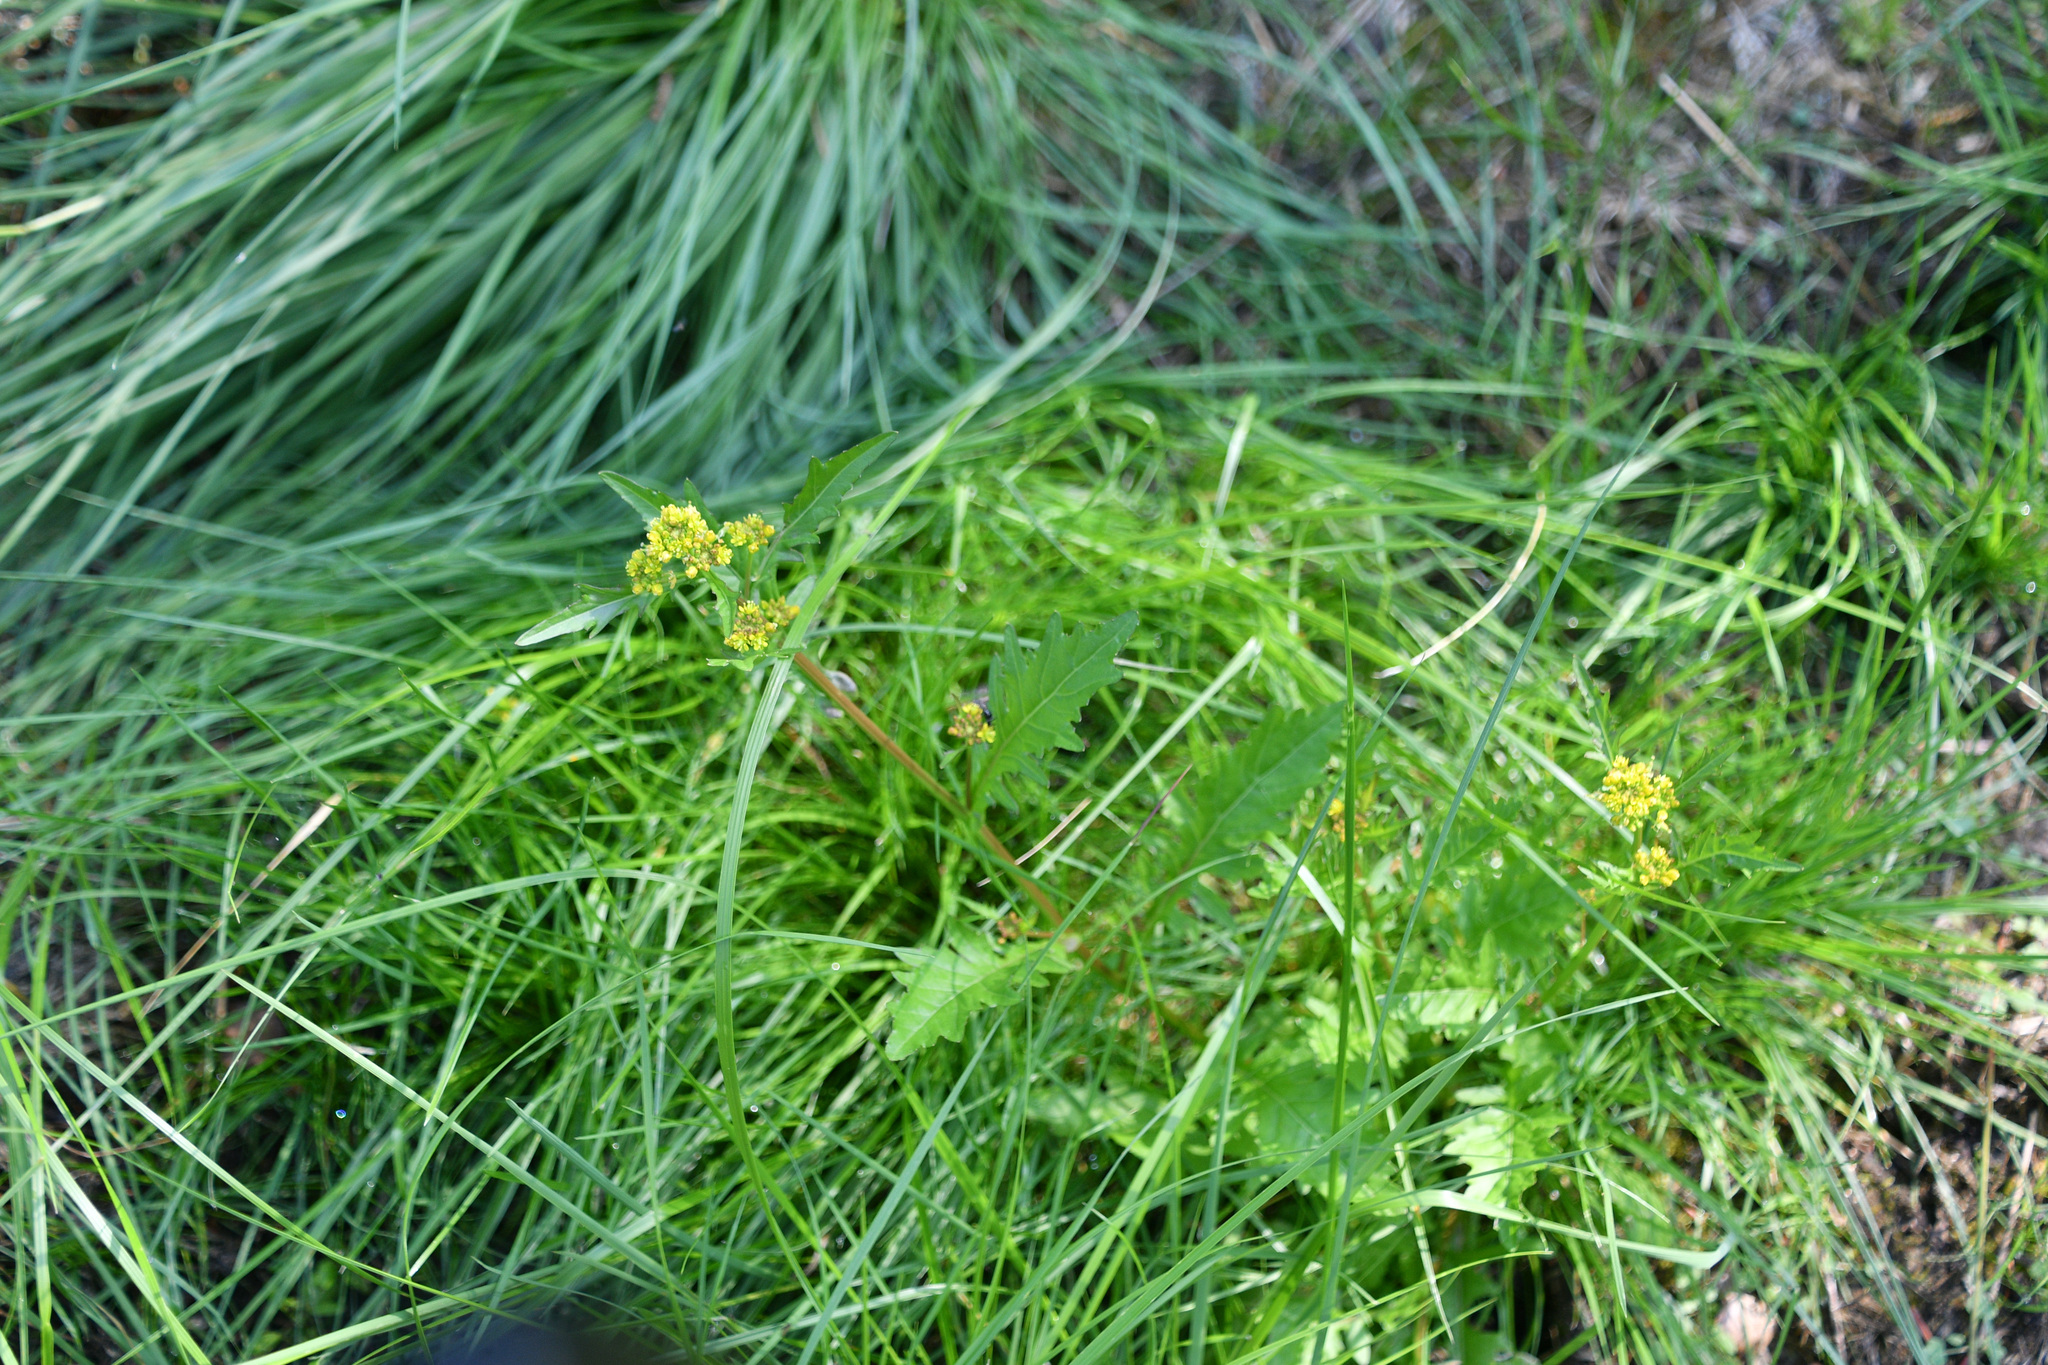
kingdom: Plantae
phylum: Tracheophyta
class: Magnoliopsida
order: Brassicales
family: Brassicaceae
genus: Rorippa
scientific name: Rorippa palustris
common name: Marsh yellow-cress
